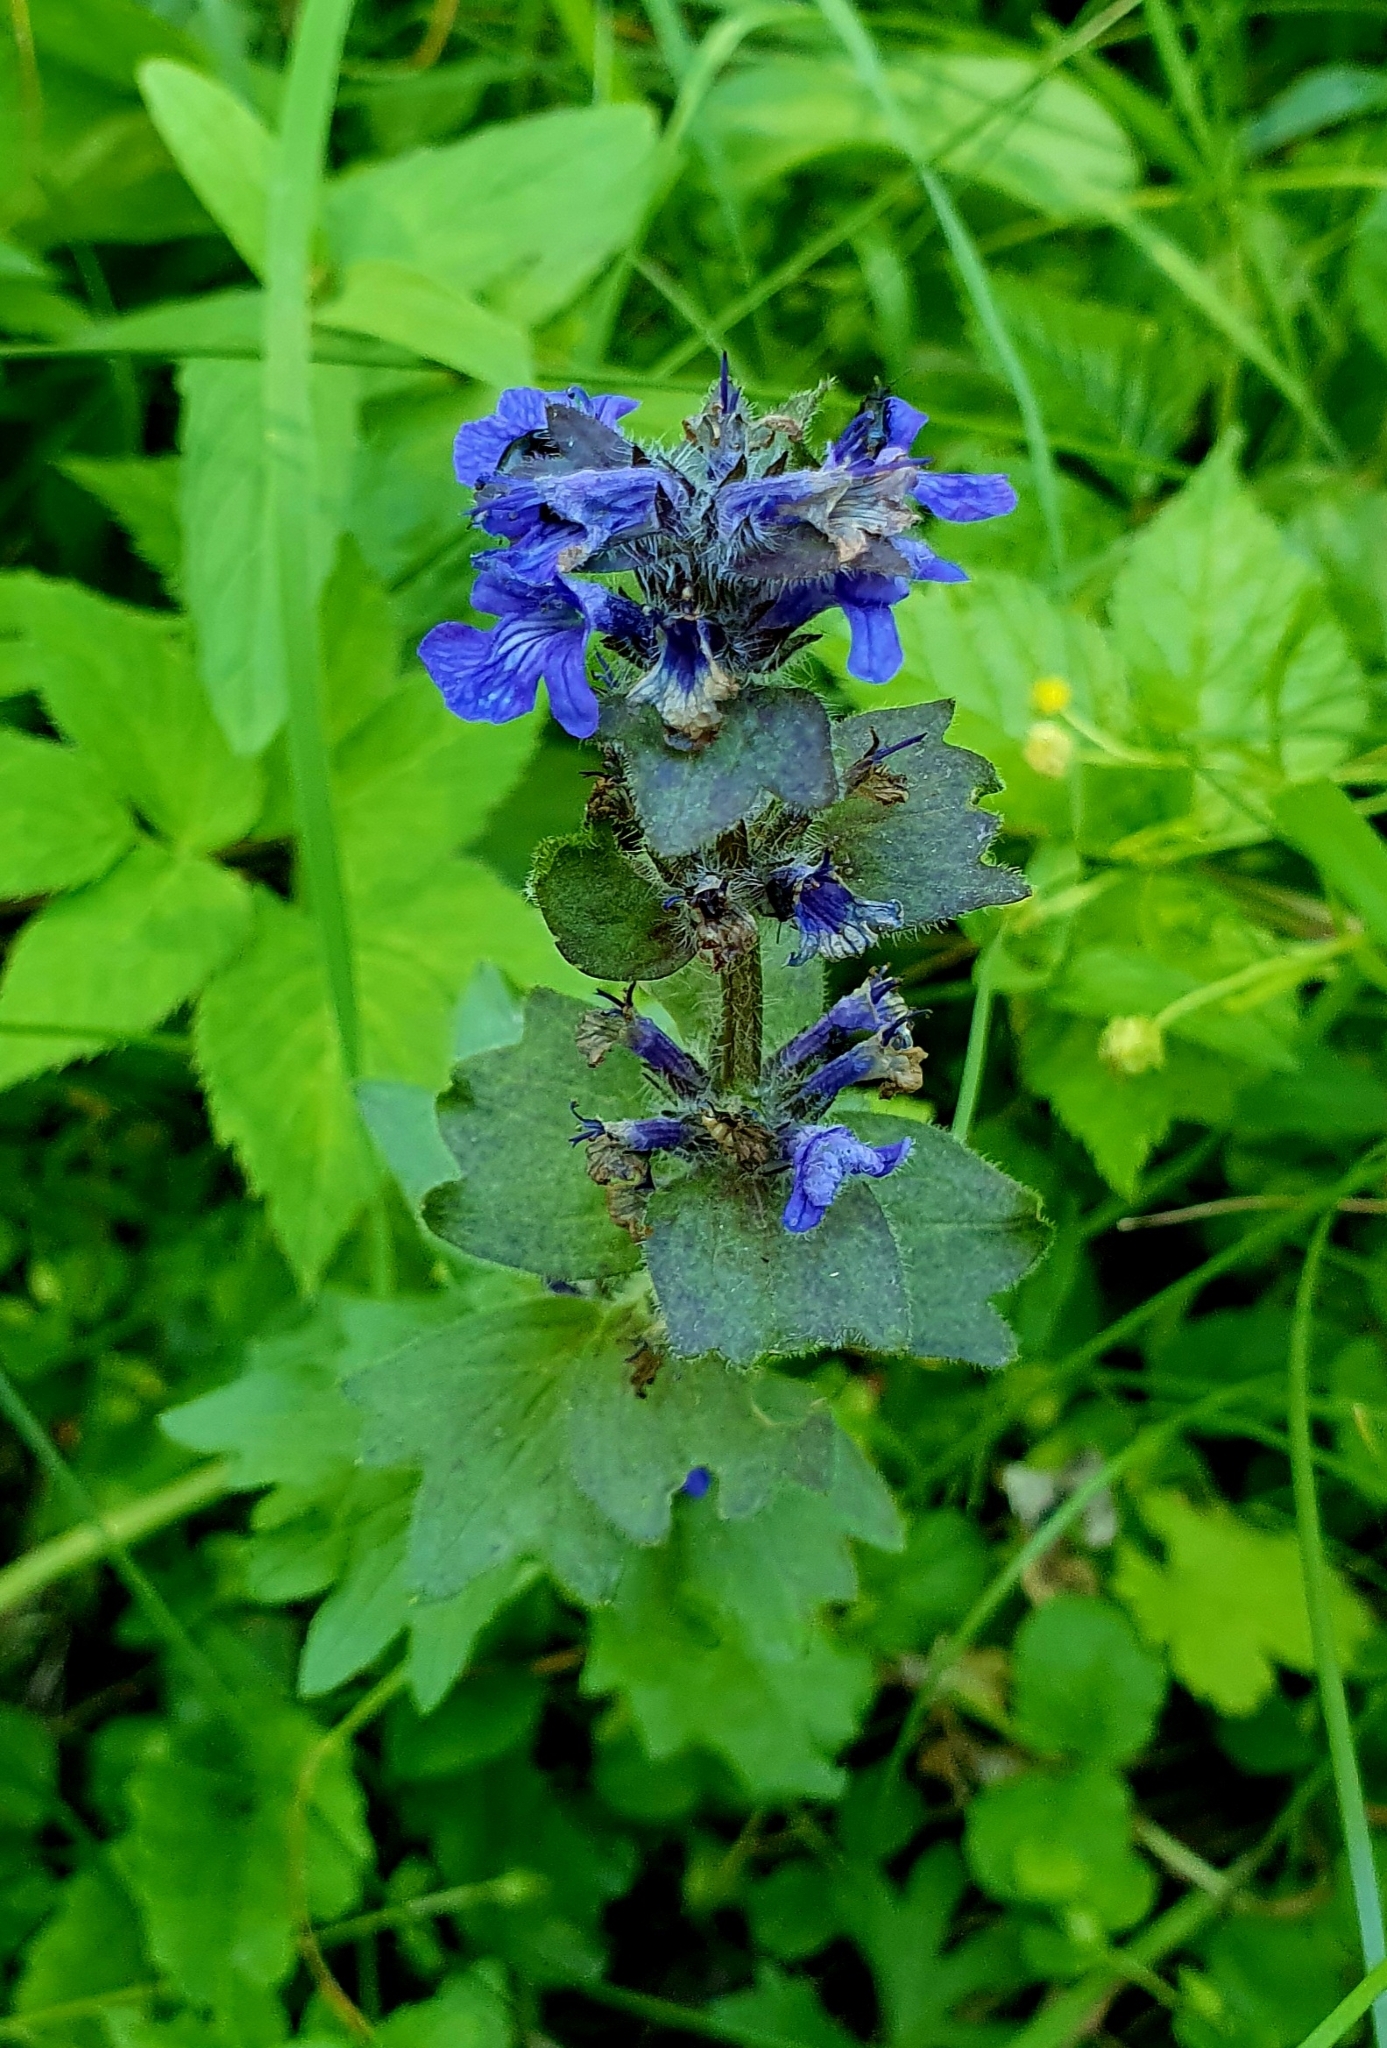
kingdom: Plantae
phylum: Tracheophyta
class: Magnoliopsida
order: Lamiales
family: Lamiaceae
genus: Ajuga
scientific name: Ajuga genevensis
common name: Blue bugle
